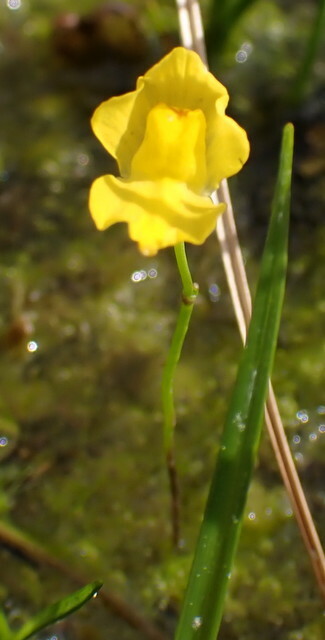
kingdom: Plantae
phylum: Tracheophyta
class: Magnoliopsida
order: Lamiales
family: Lentibulariaceae
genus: Utricularia
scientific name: Utricularia gibba
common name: Humped bladderwort
